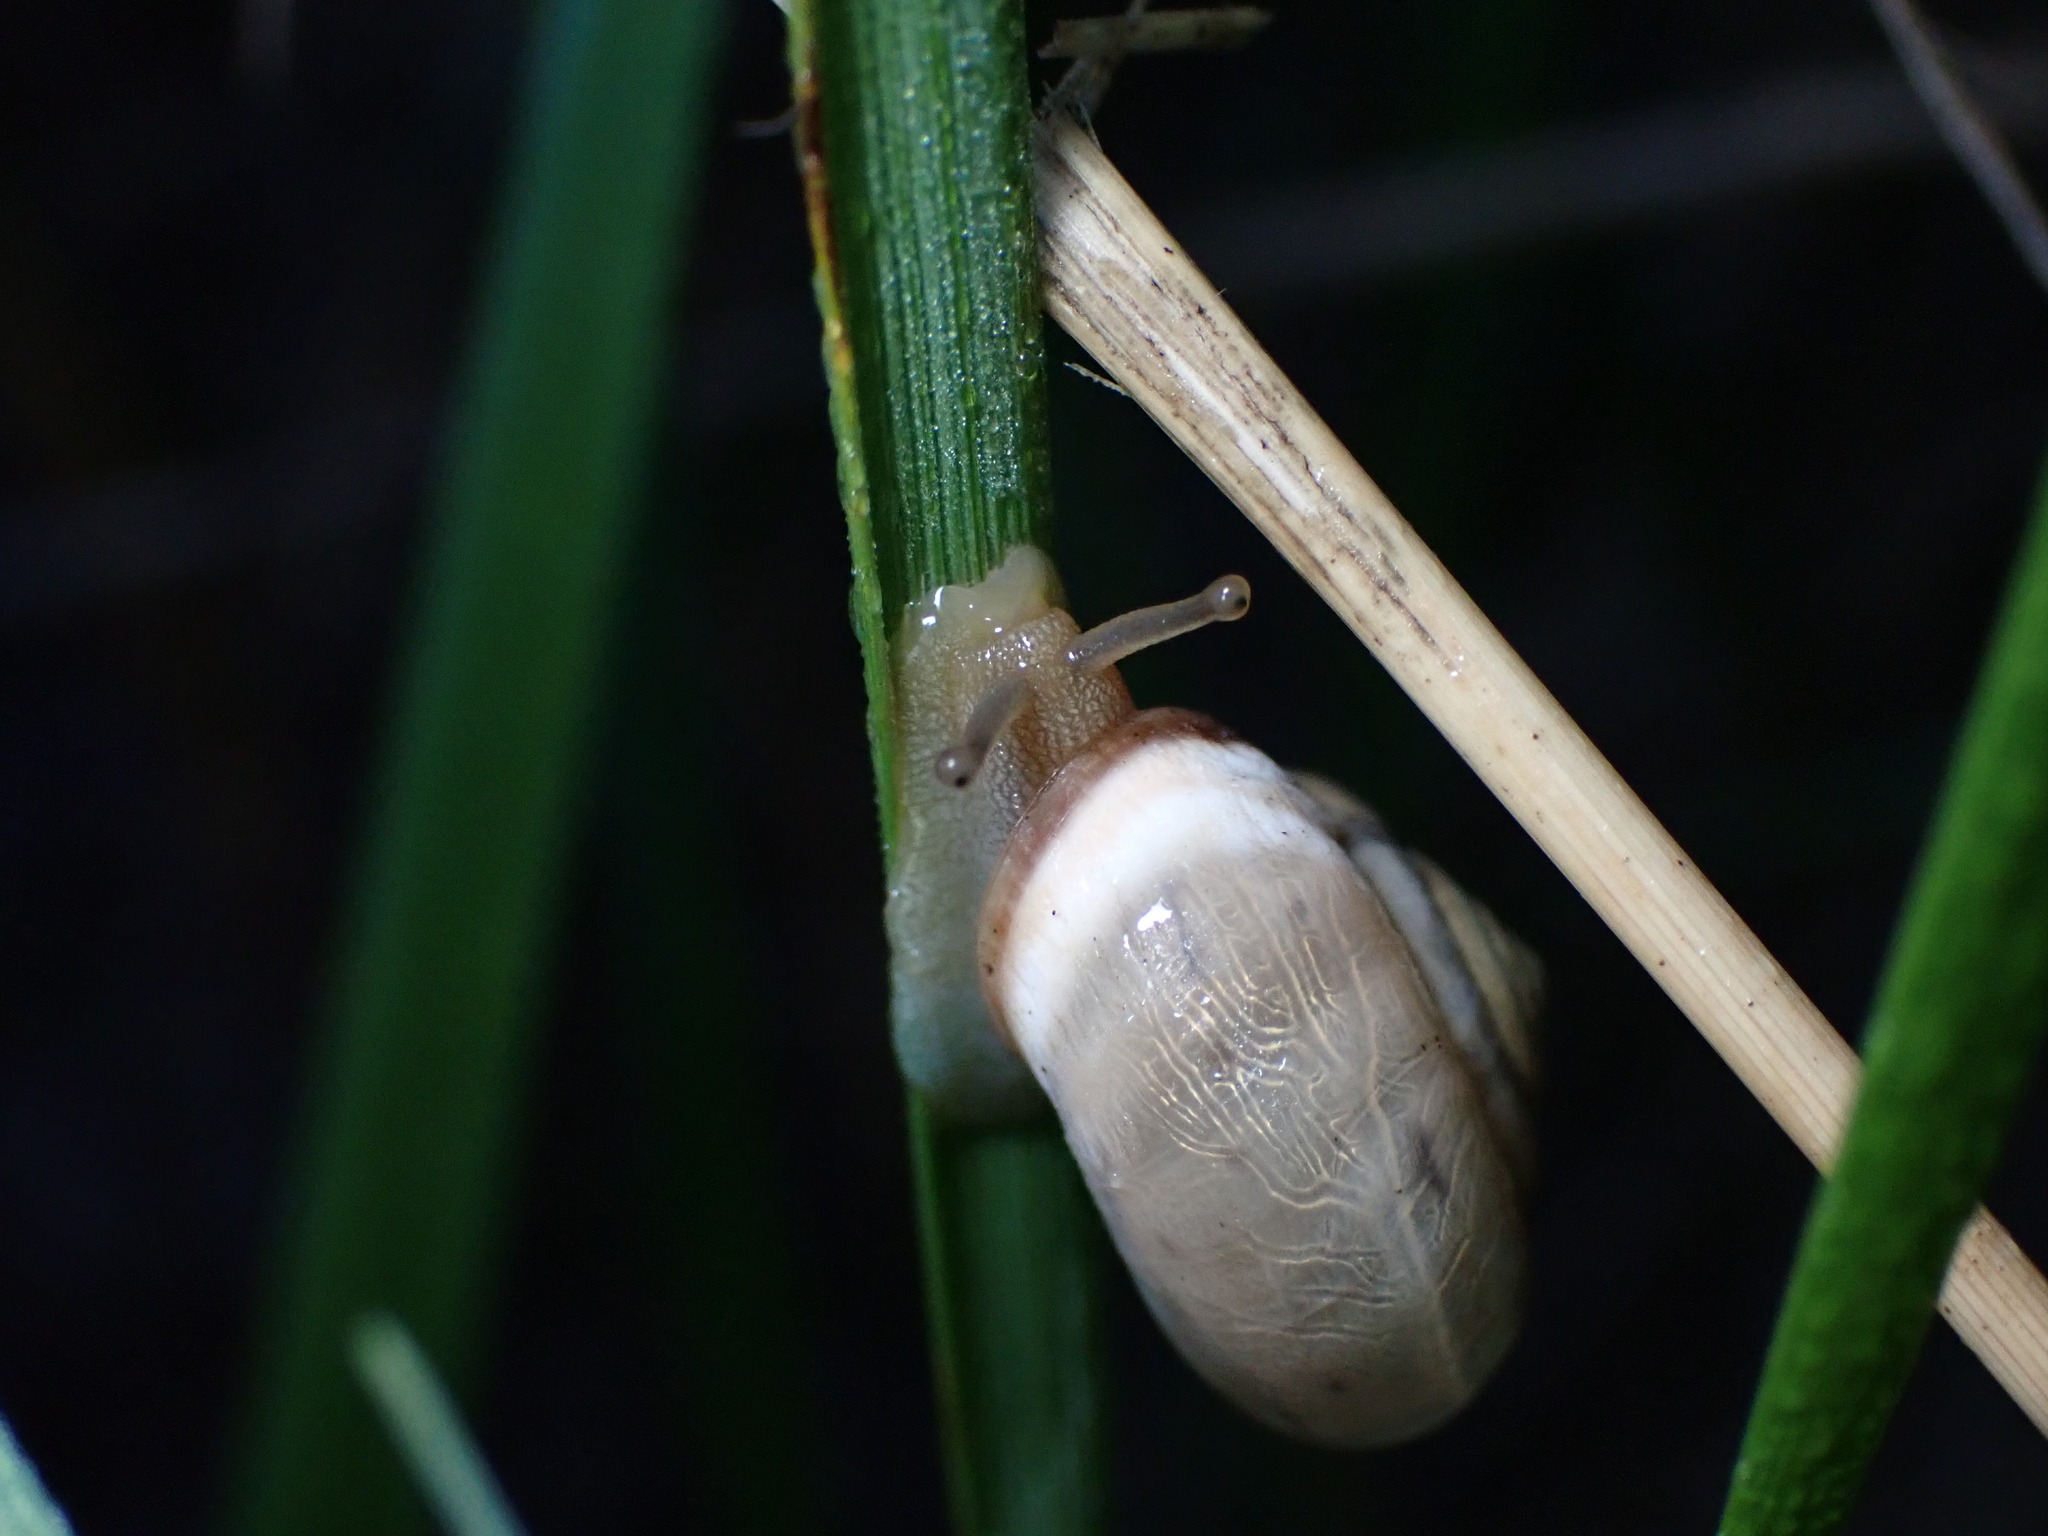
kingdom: Animalia
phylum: Mollusca
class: Gastropoda
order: Stylommatophora
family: Hygromiidae
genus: Monacha
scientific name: Monacha cartusiana
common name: Carthusian snail
